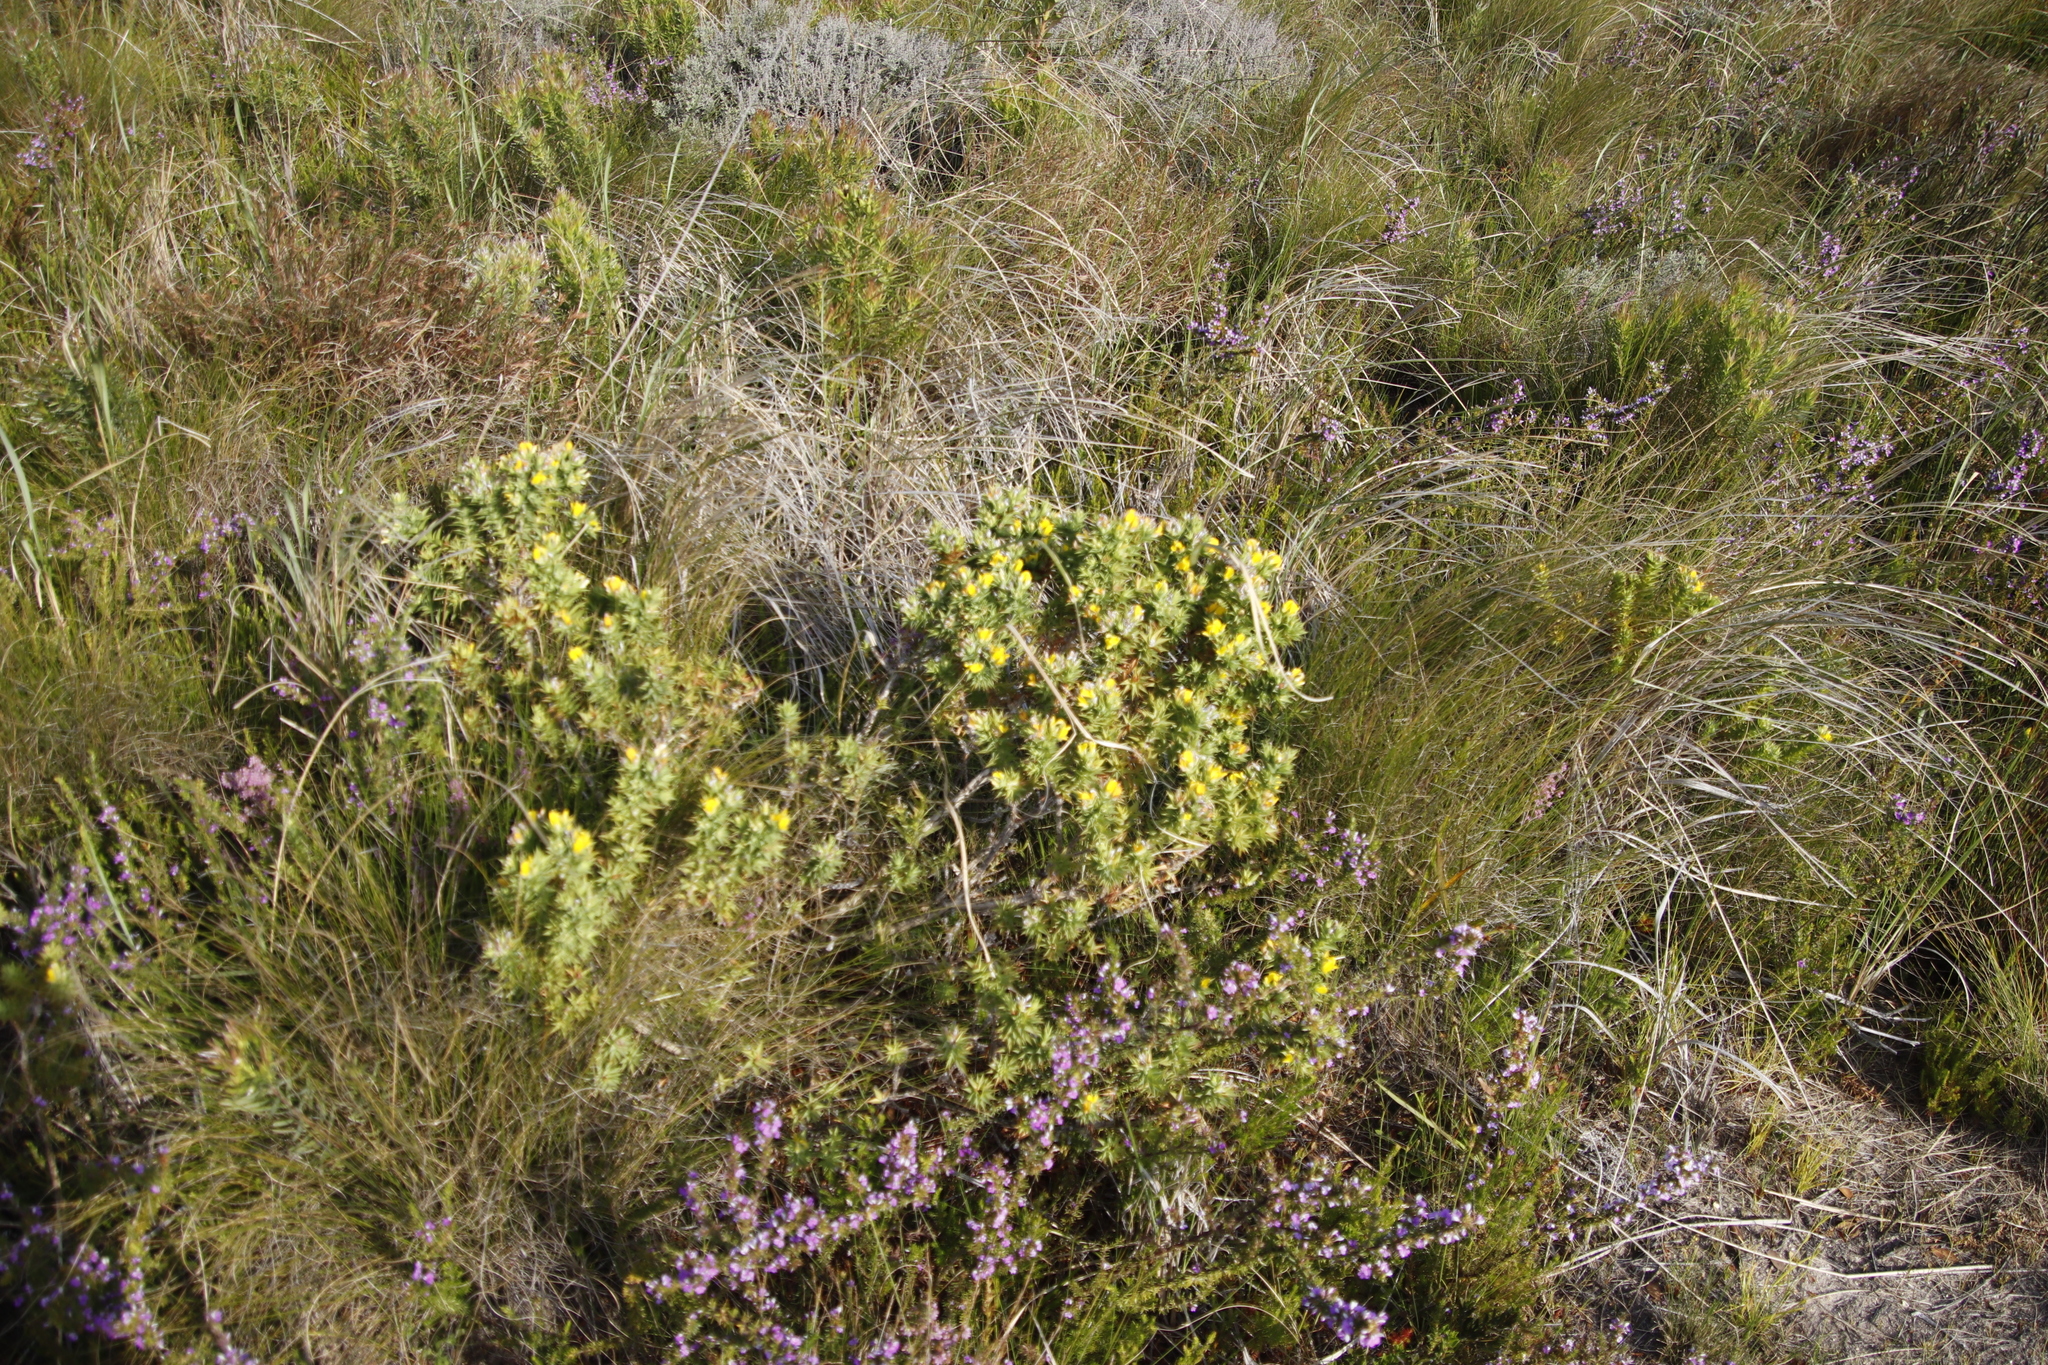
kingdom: Plantae
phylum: Tracheophyta
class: Magnoliopsida
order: Fabales
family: Fabaceae
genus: Aspalathus
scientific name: Aspalathus cordata
